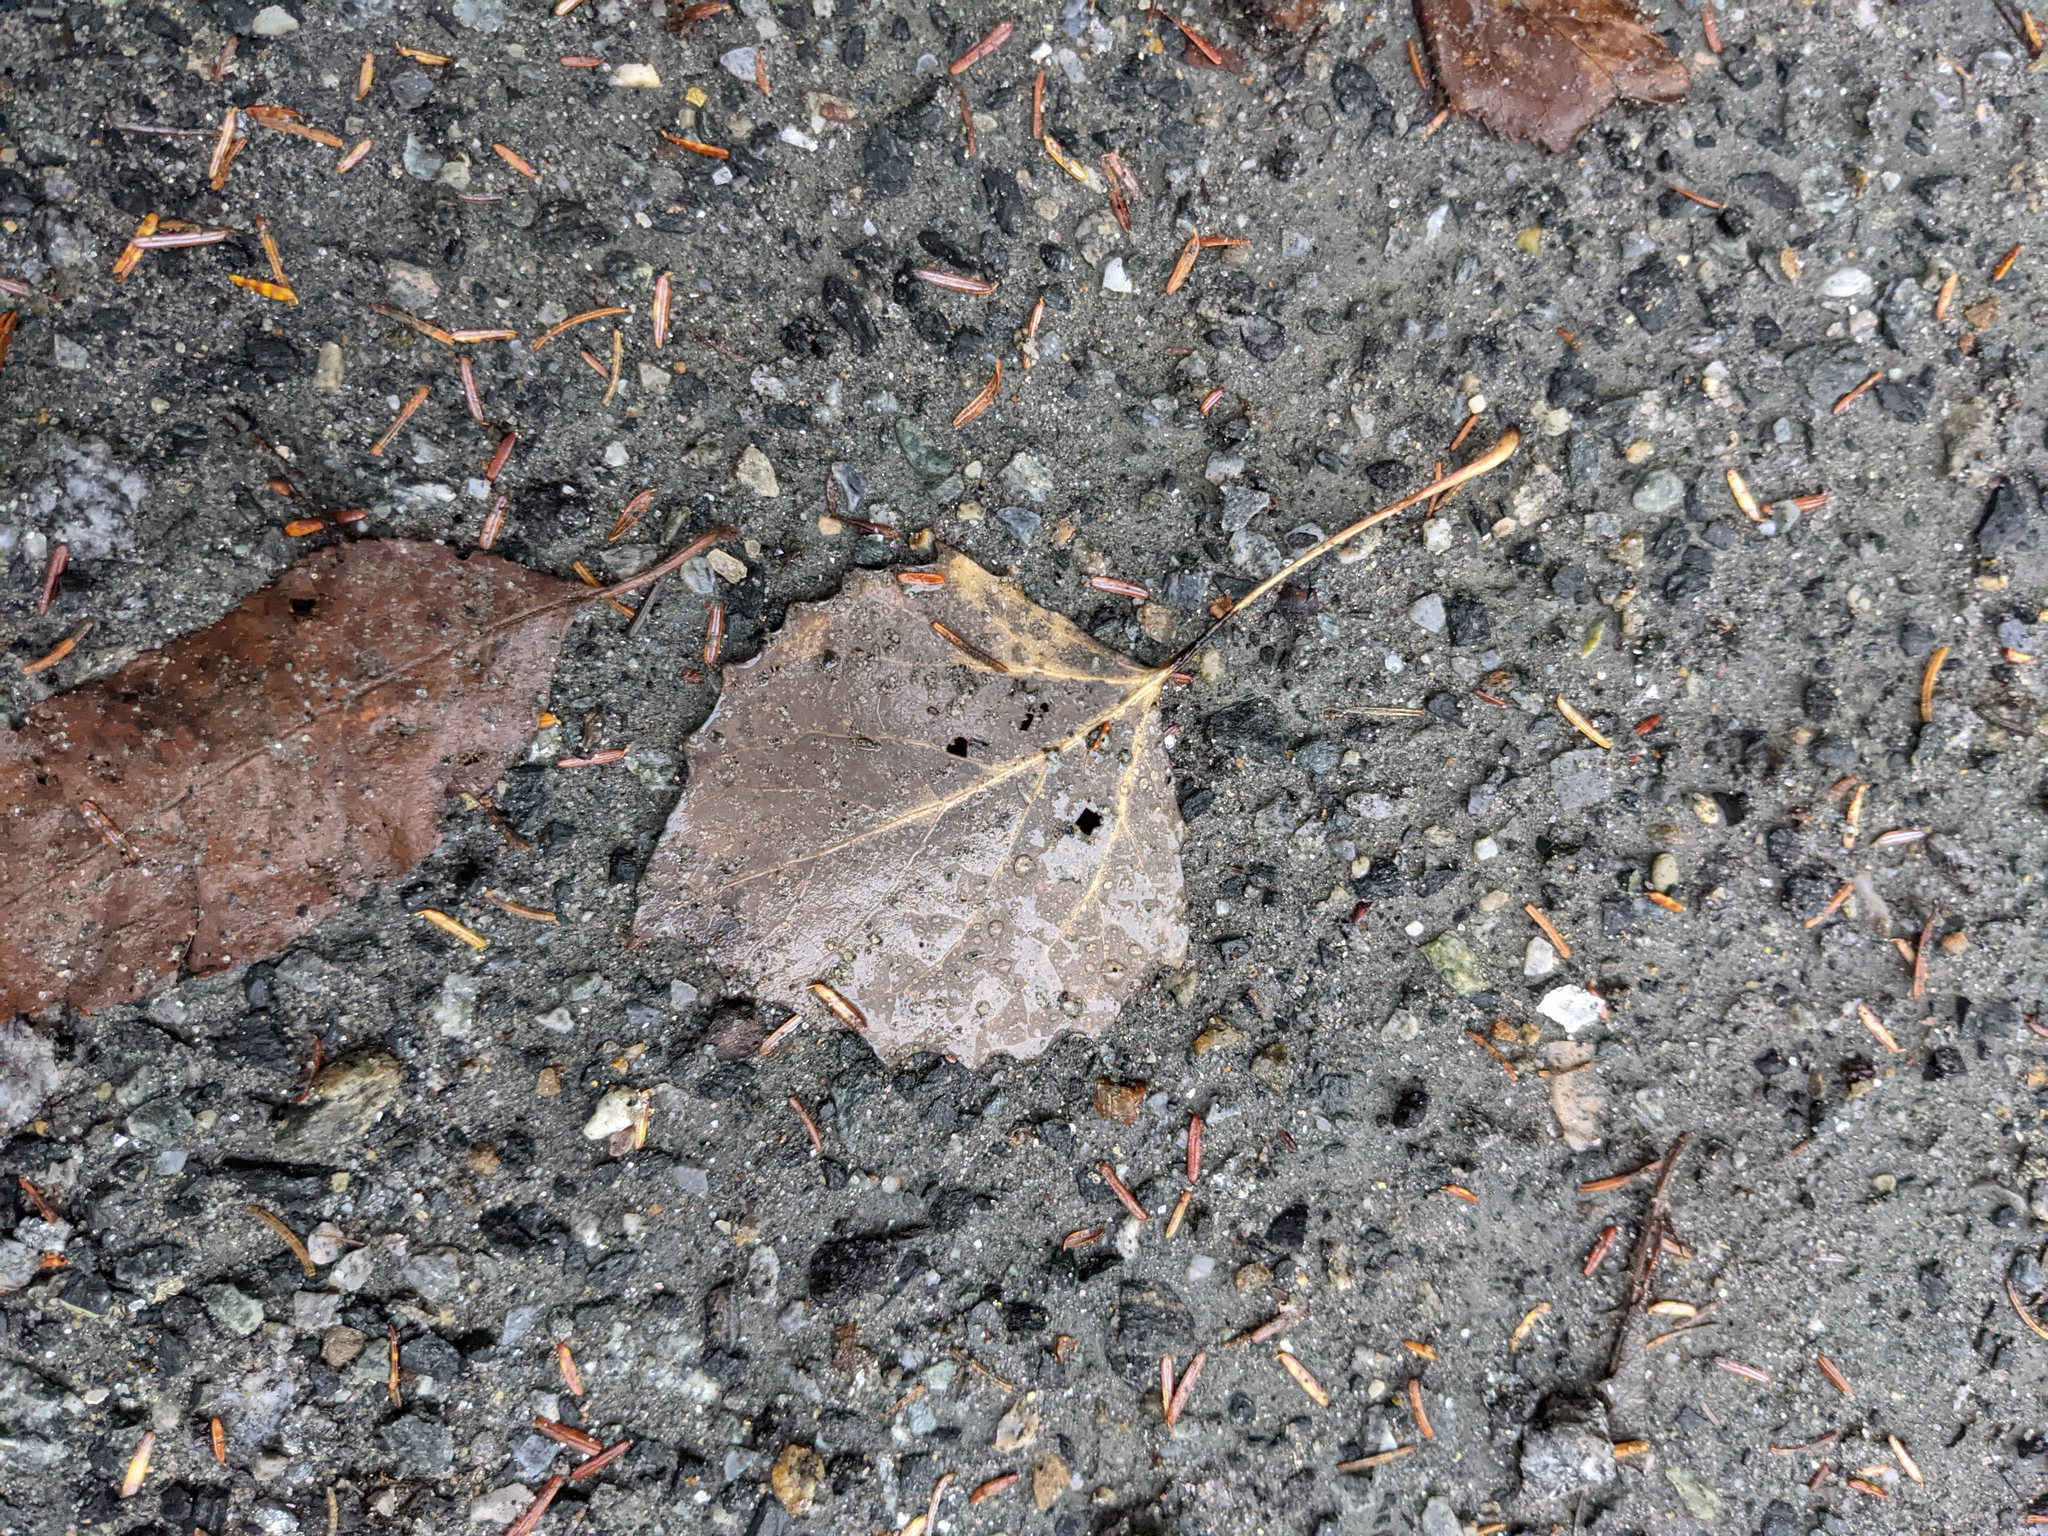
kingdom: Plantae
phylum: Tracheophyta
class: Magnoliopsida
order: Malpighiales
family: Salicaceae
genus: Populus
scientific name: Populus grandidentata
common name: Bigtooth aspen
